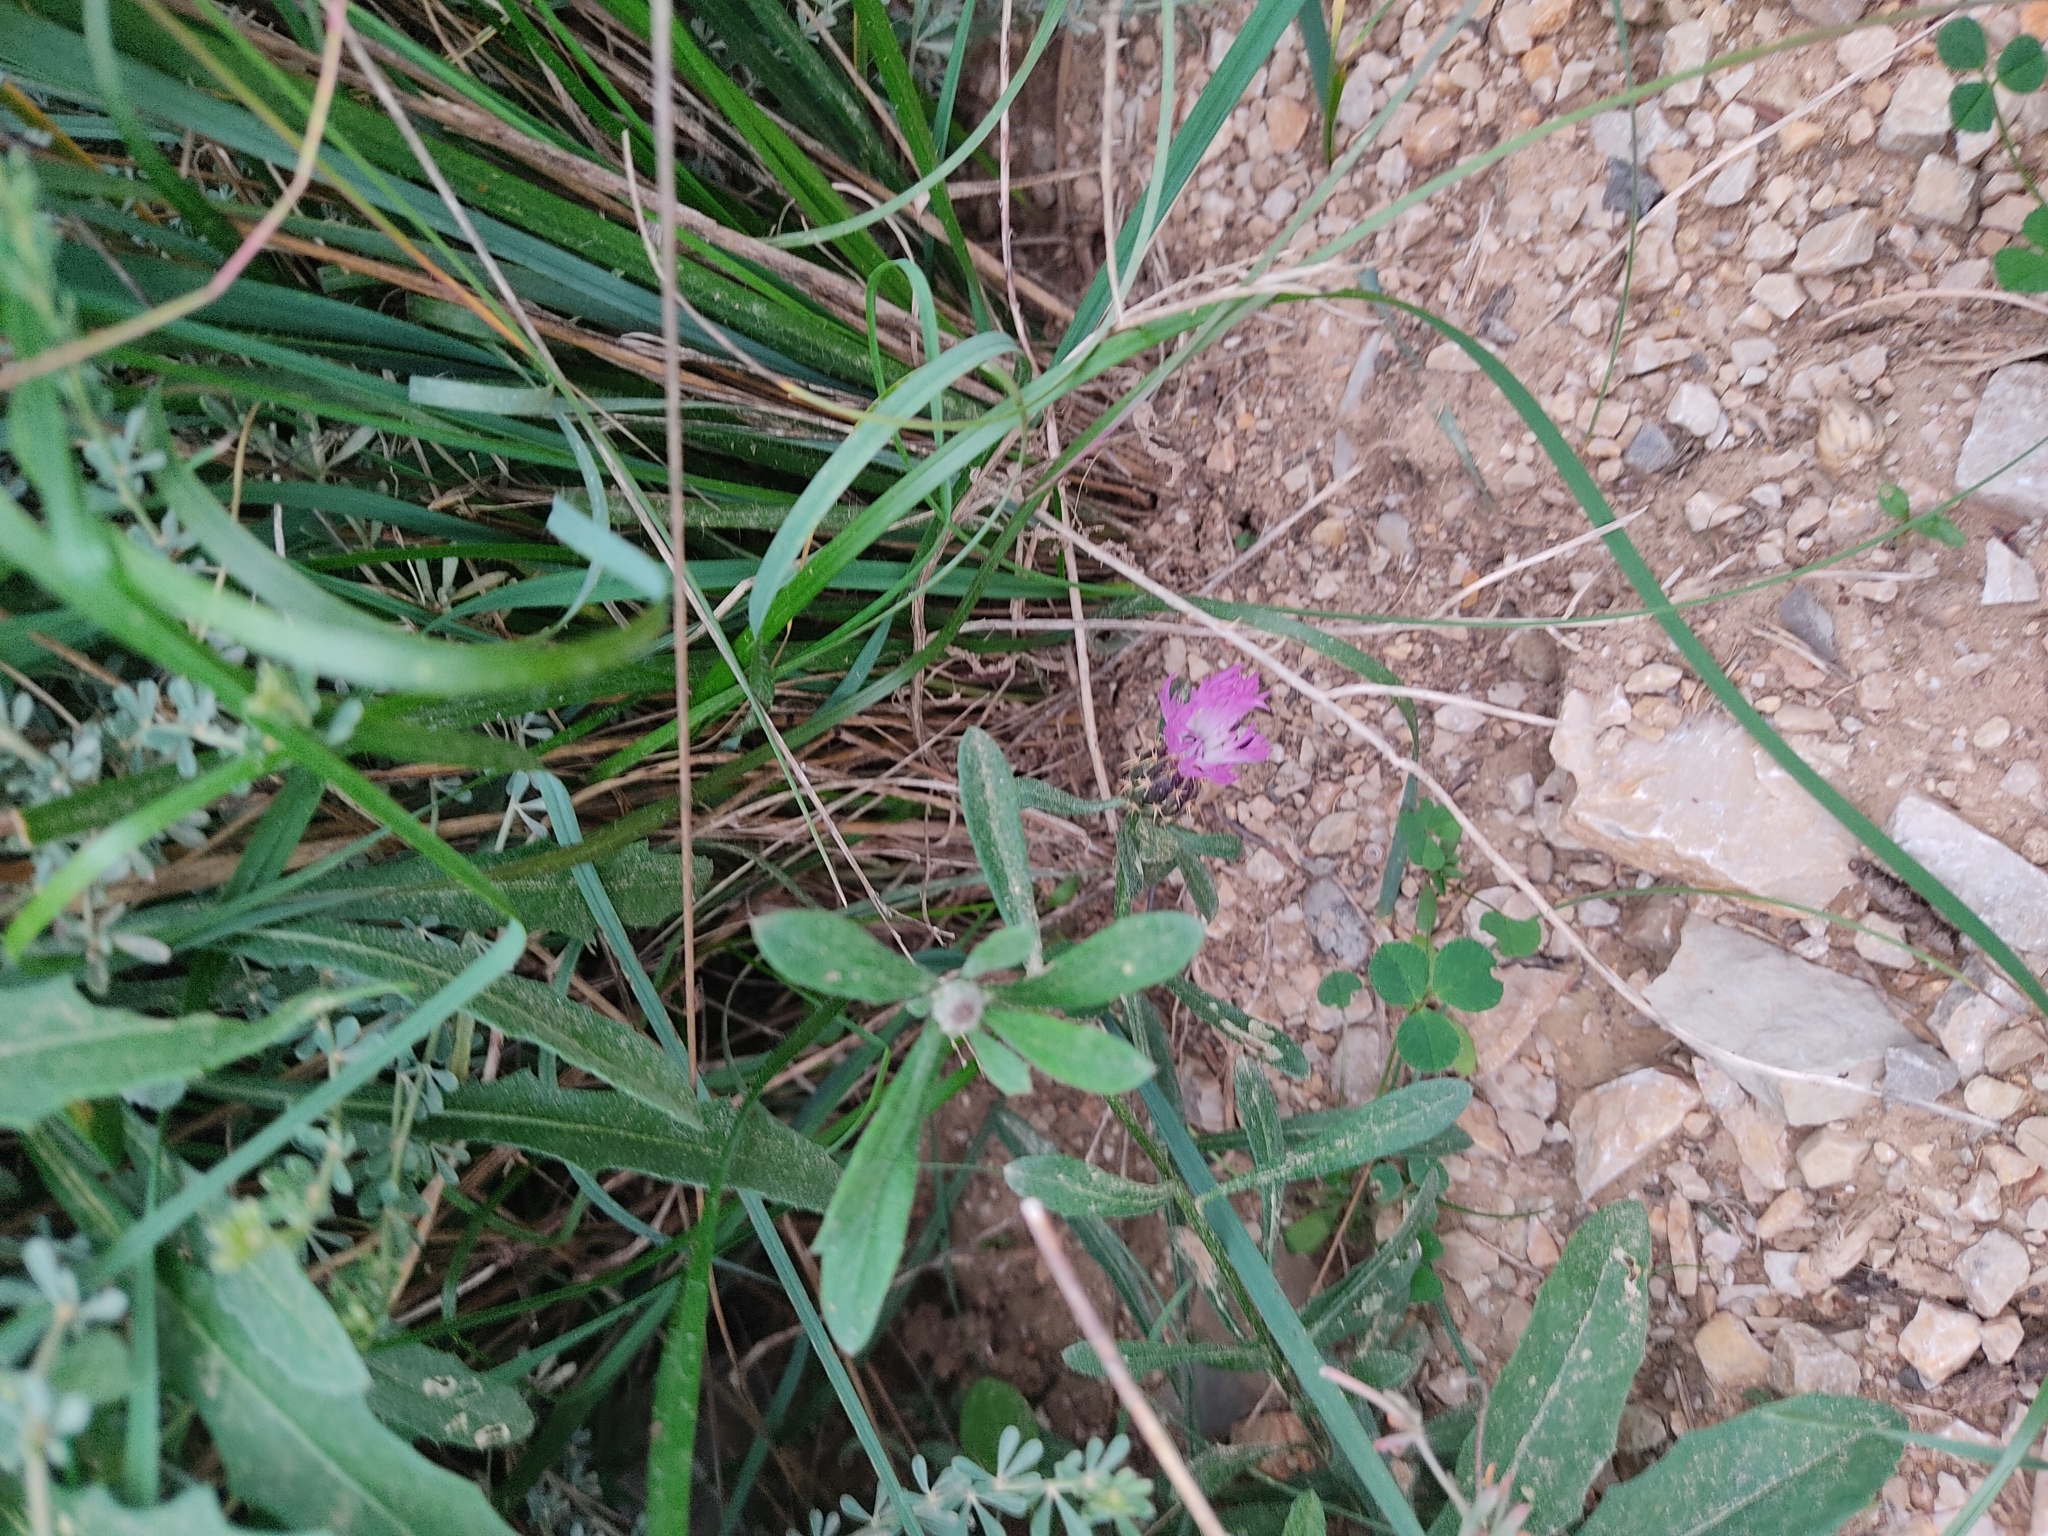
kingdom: Plantae
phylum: Tracheophyta
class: Magnoliopsida
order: Asterales
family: Asteraceae
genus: Centaurea
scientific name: Centaurea aspera
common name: Rough star-thistle
